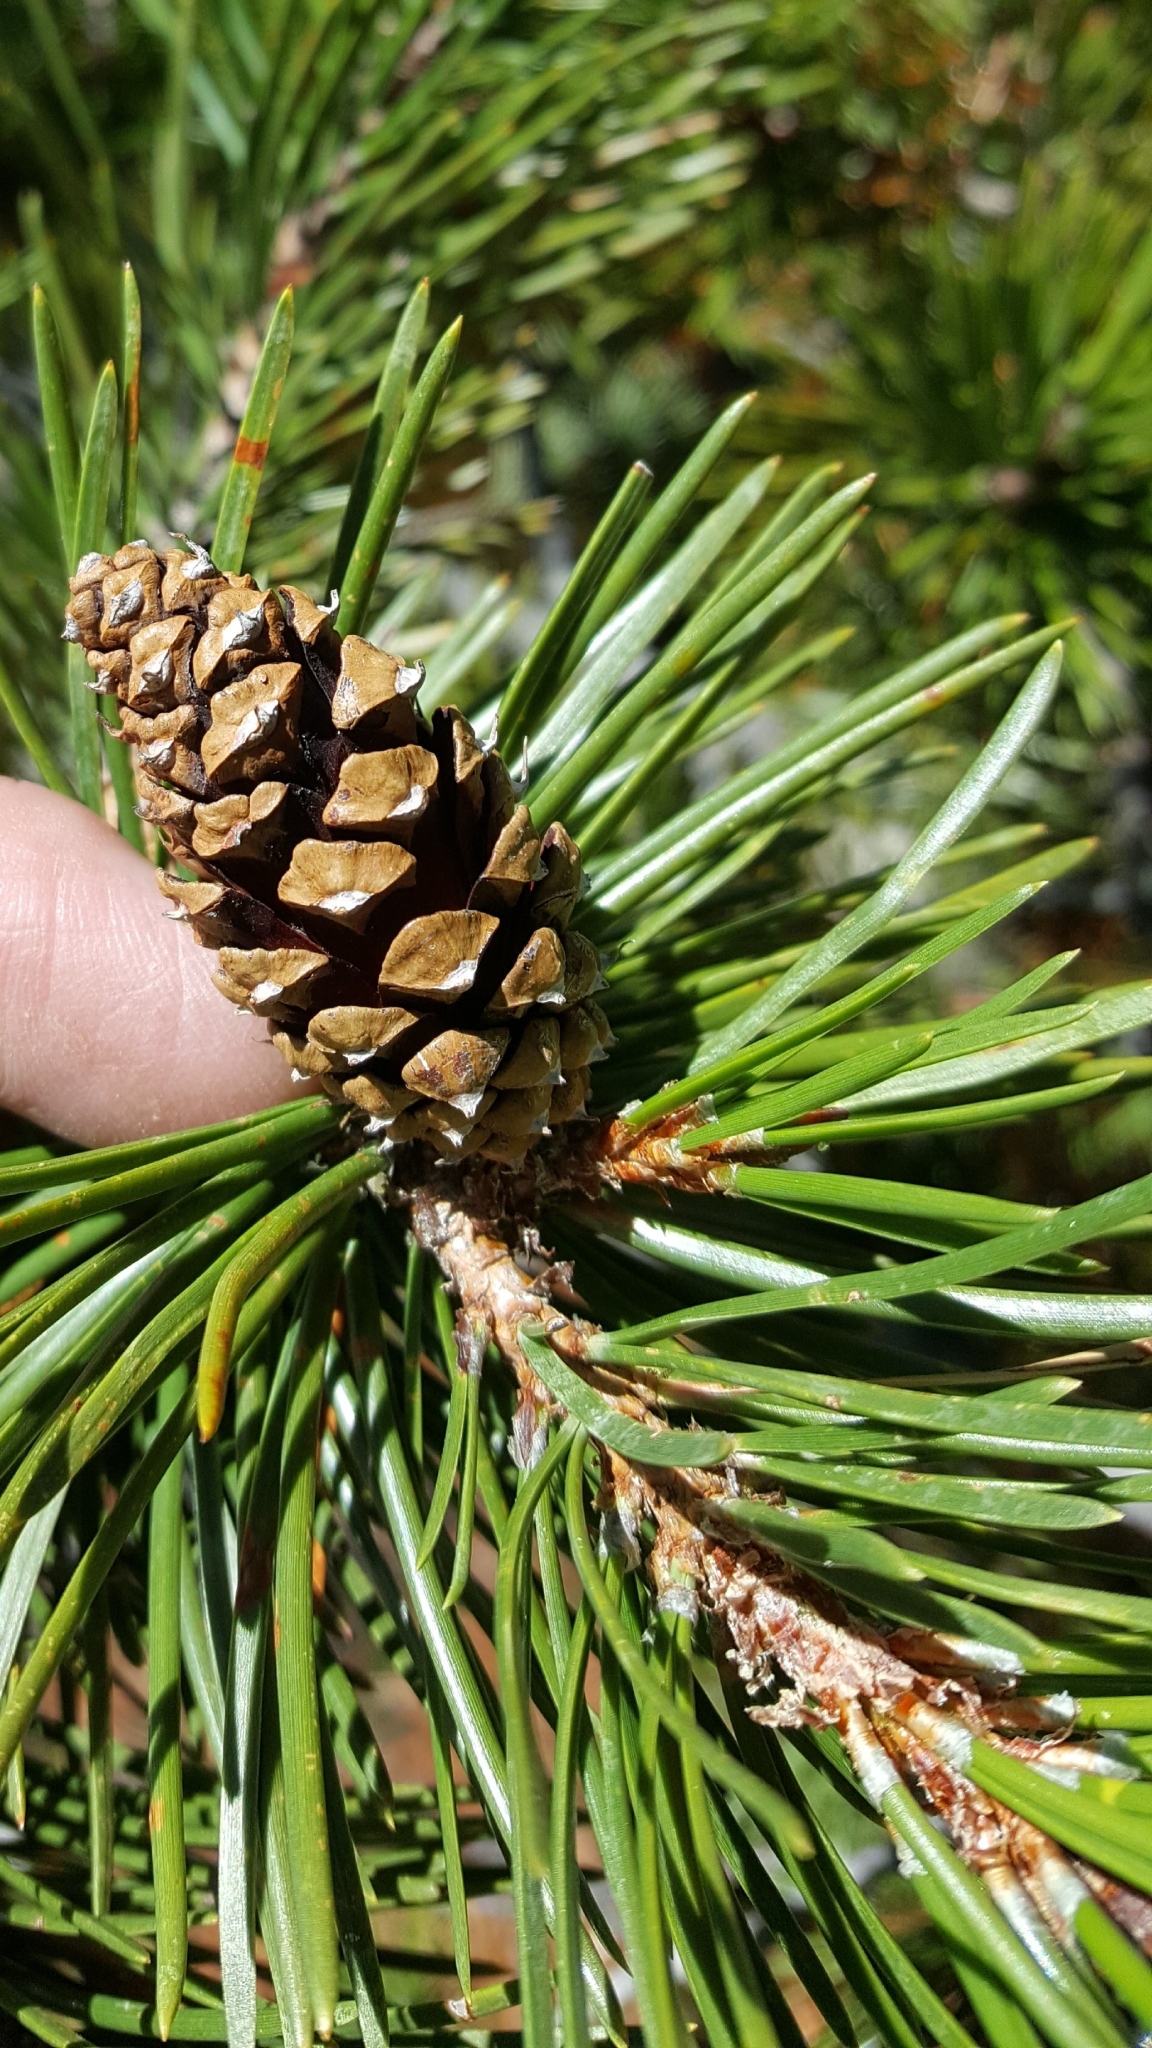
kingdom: Plantae
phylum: Tracheophyta
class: Pinopsida
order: Pinales
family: Pinaceae
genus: Pinus
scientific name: Pinus contorta
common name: Lodgepole pine
